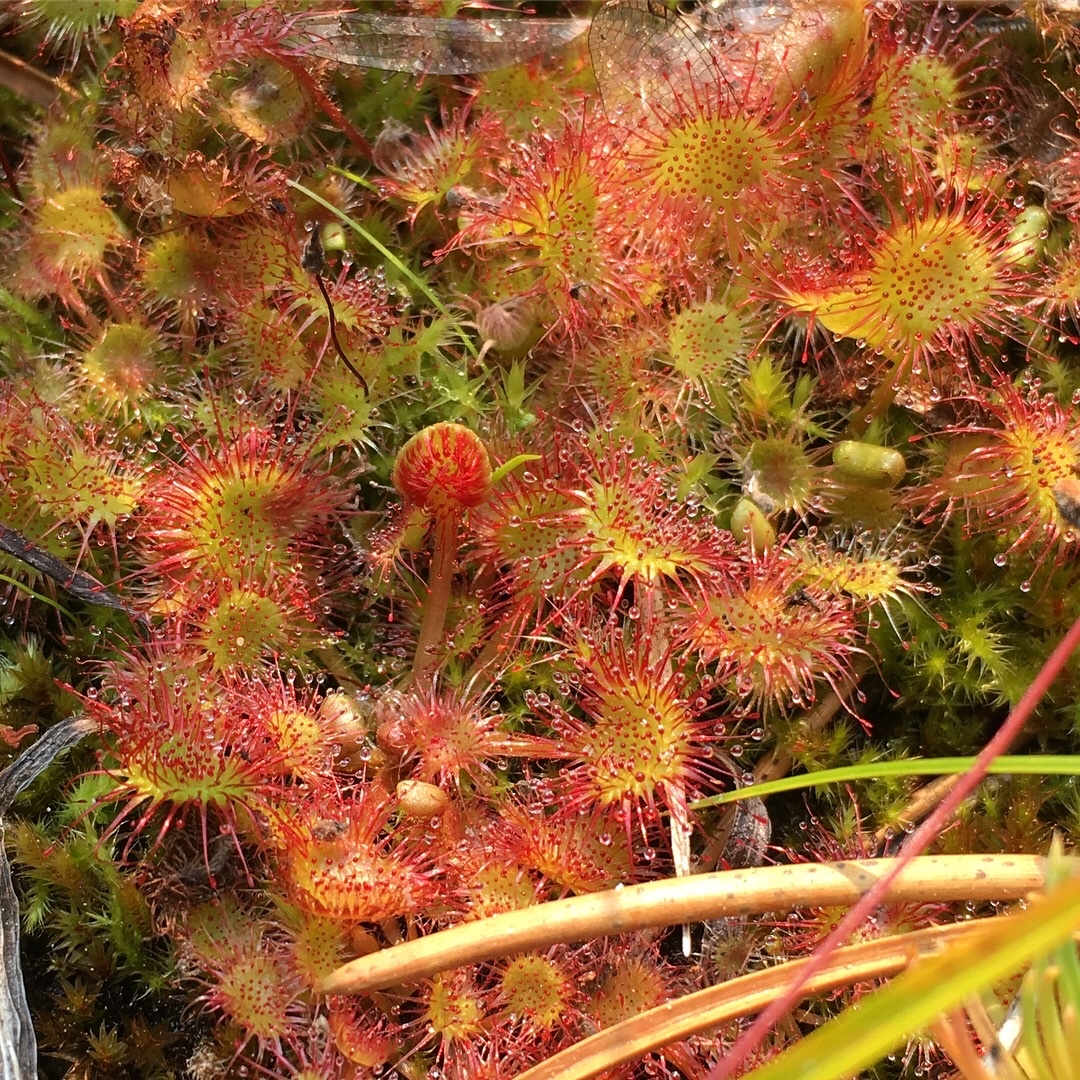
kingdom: Plantae
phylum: Tracheophyta
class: Magnoliopsida
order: Caryophyllales
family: Droseraceae
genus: Drosera
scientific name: Drosera rotundifolia
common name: Round-leaved sundew
